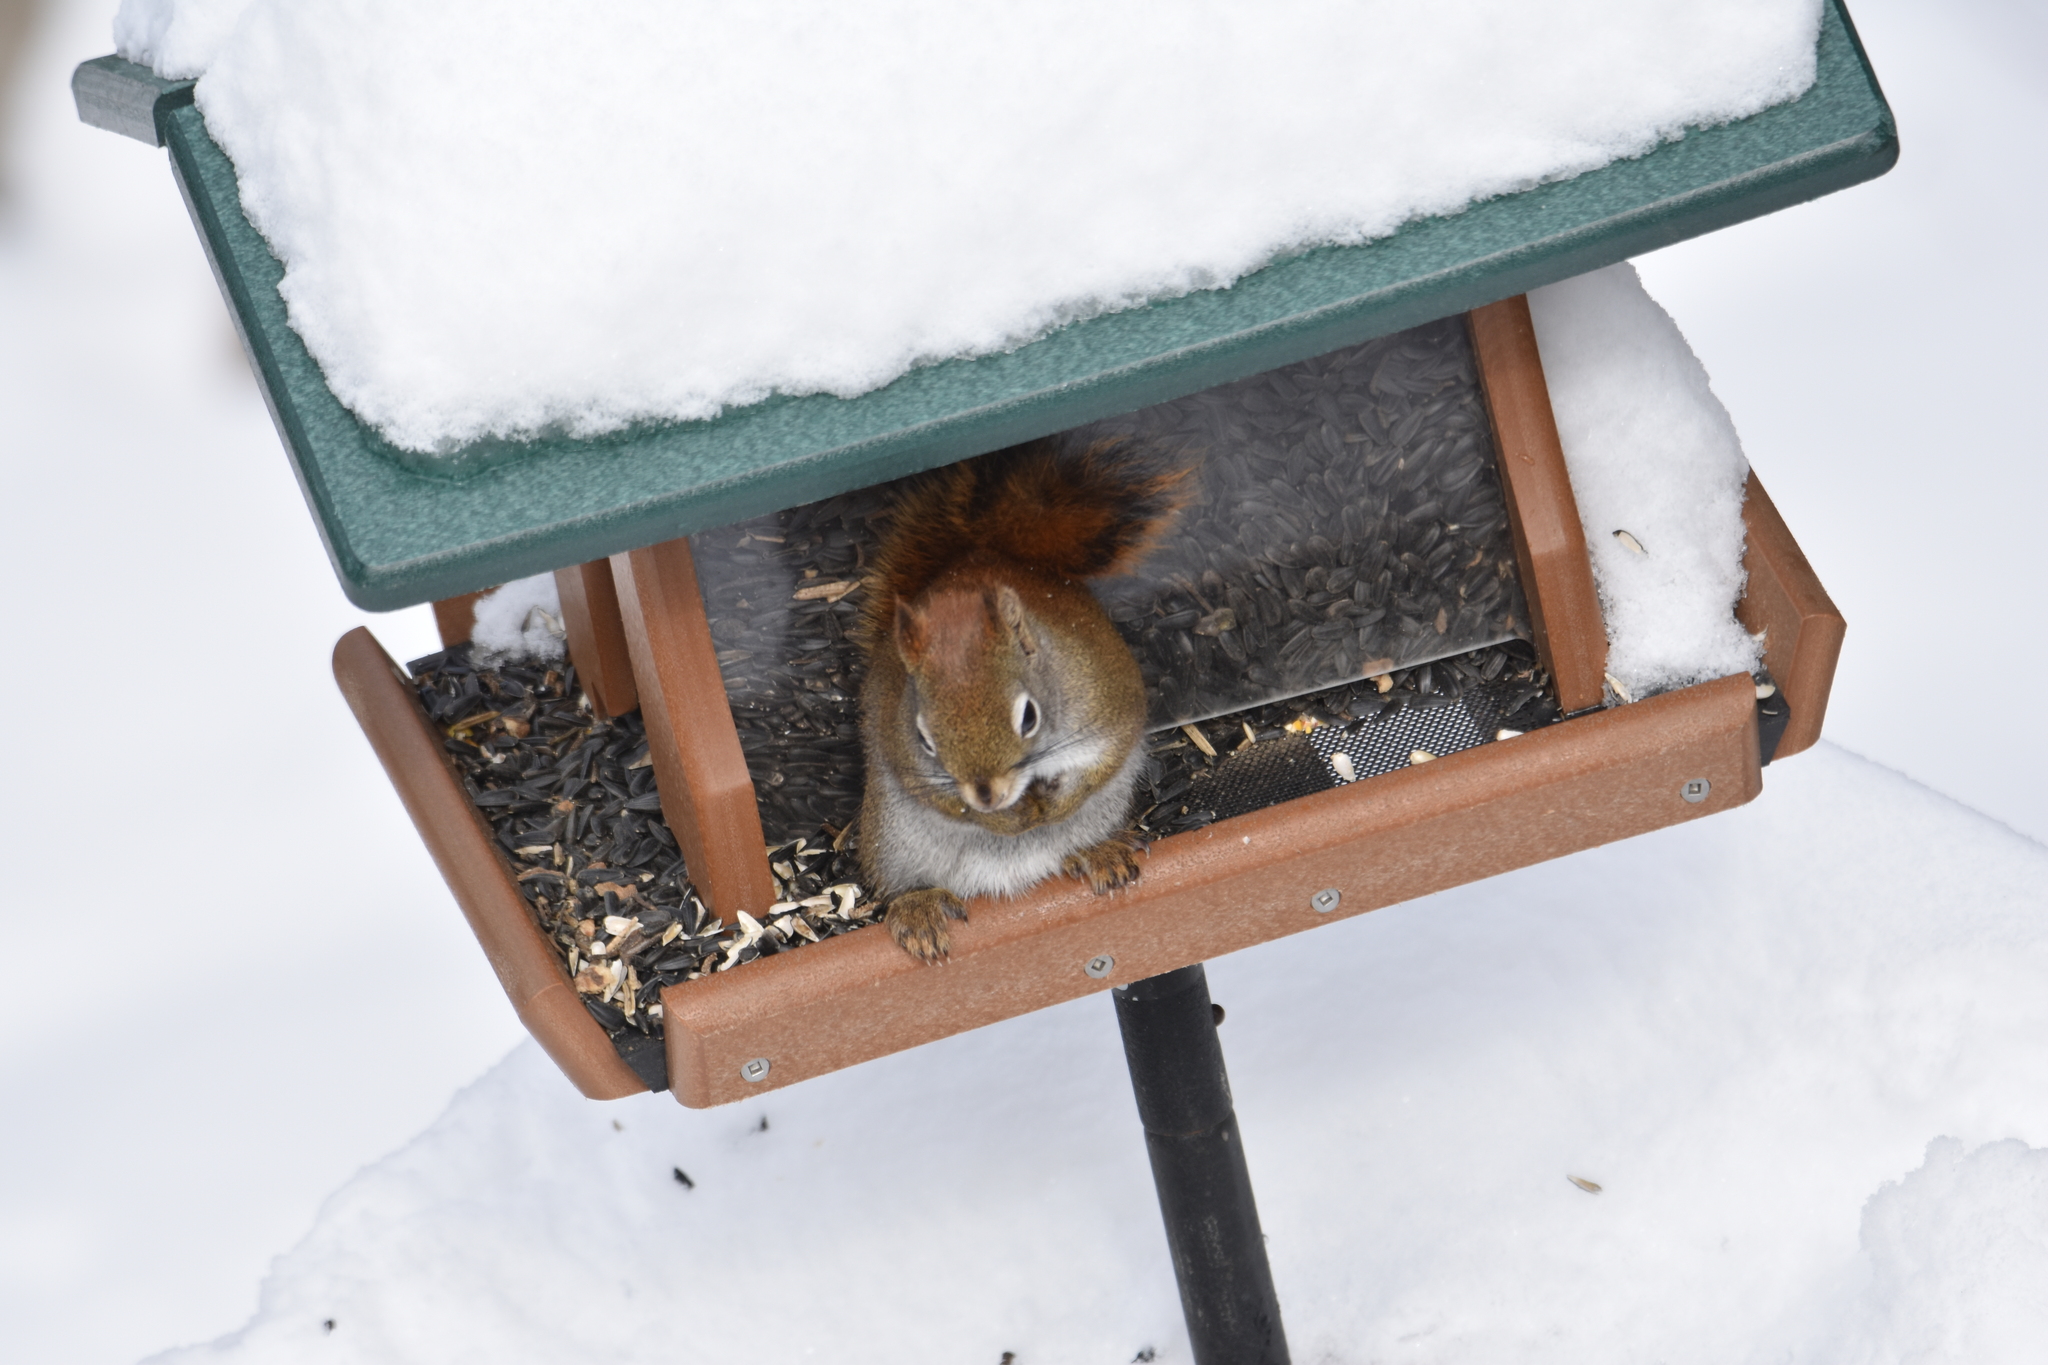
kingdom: Animalia
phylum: Chordata
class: Mammalia
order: Rodentia
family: Sciuridae
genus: Tamiasciurus
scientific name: Tamiasciurus hudsonicus
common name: Red squirrel
